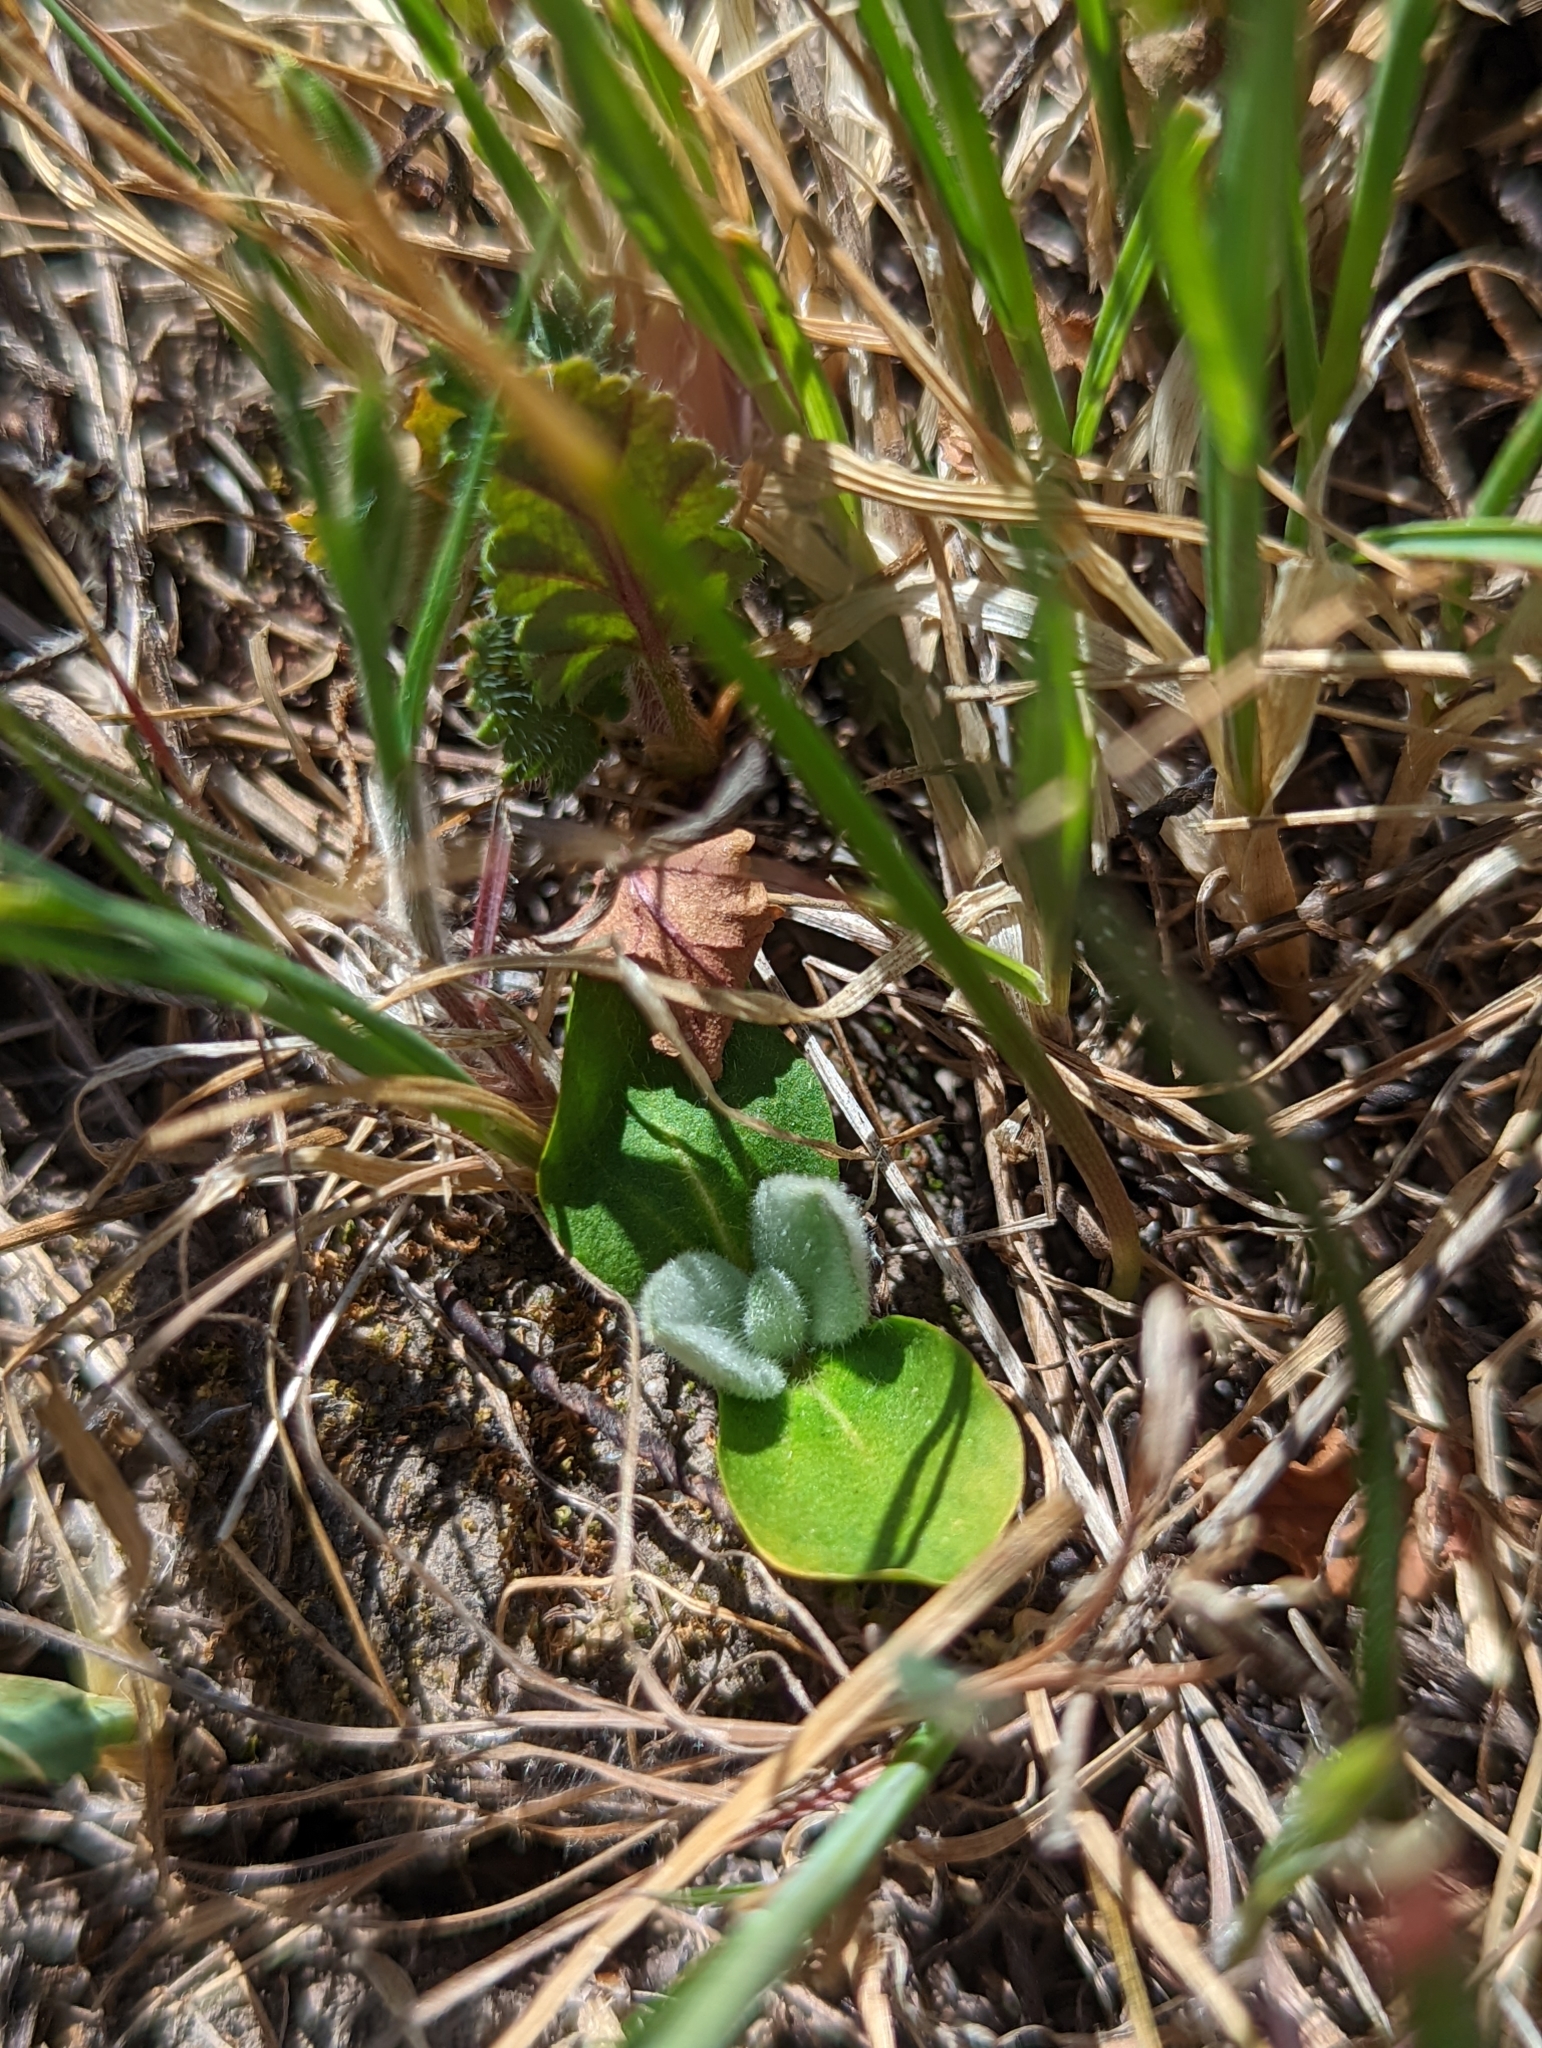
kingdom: Plantae
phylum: Tracheophyta
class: Magnoliopsida
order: Malpighiales
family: Euphorbiaceae
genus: Croton
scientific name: Croton setiger
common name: Dove weed
